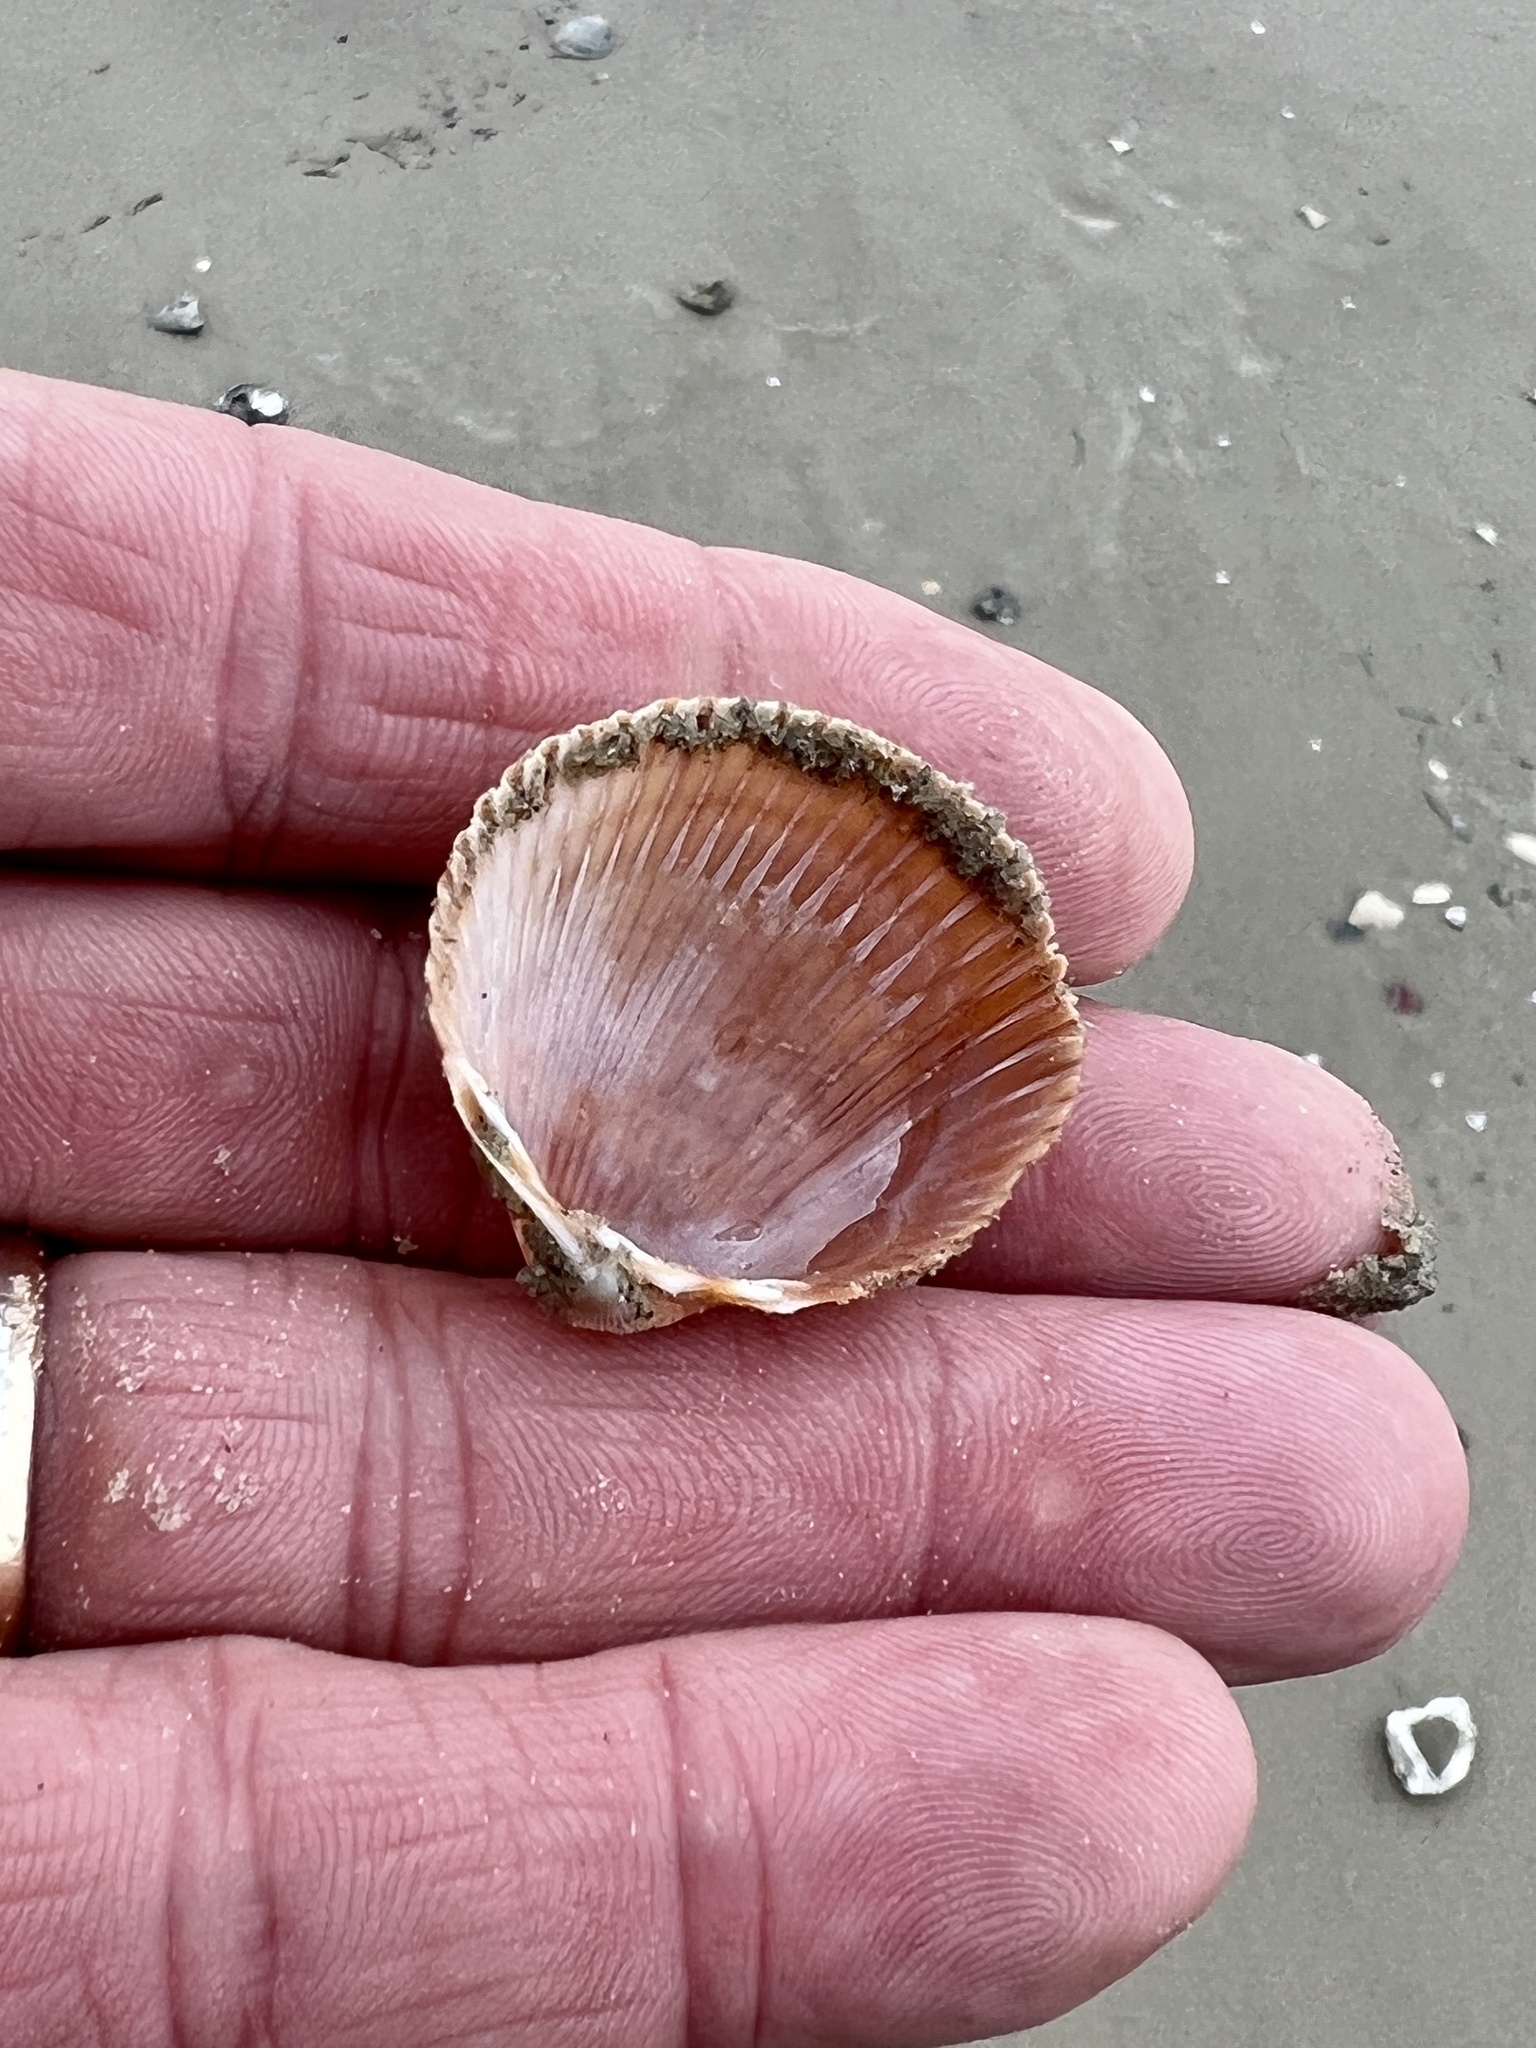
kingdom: Animalia
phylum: Mollusca
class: Bivalvia
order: Cardiida
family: Cardiidae
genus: Dinocardium
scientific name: Dinocardium robustum
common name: Atlantic giant cockle
